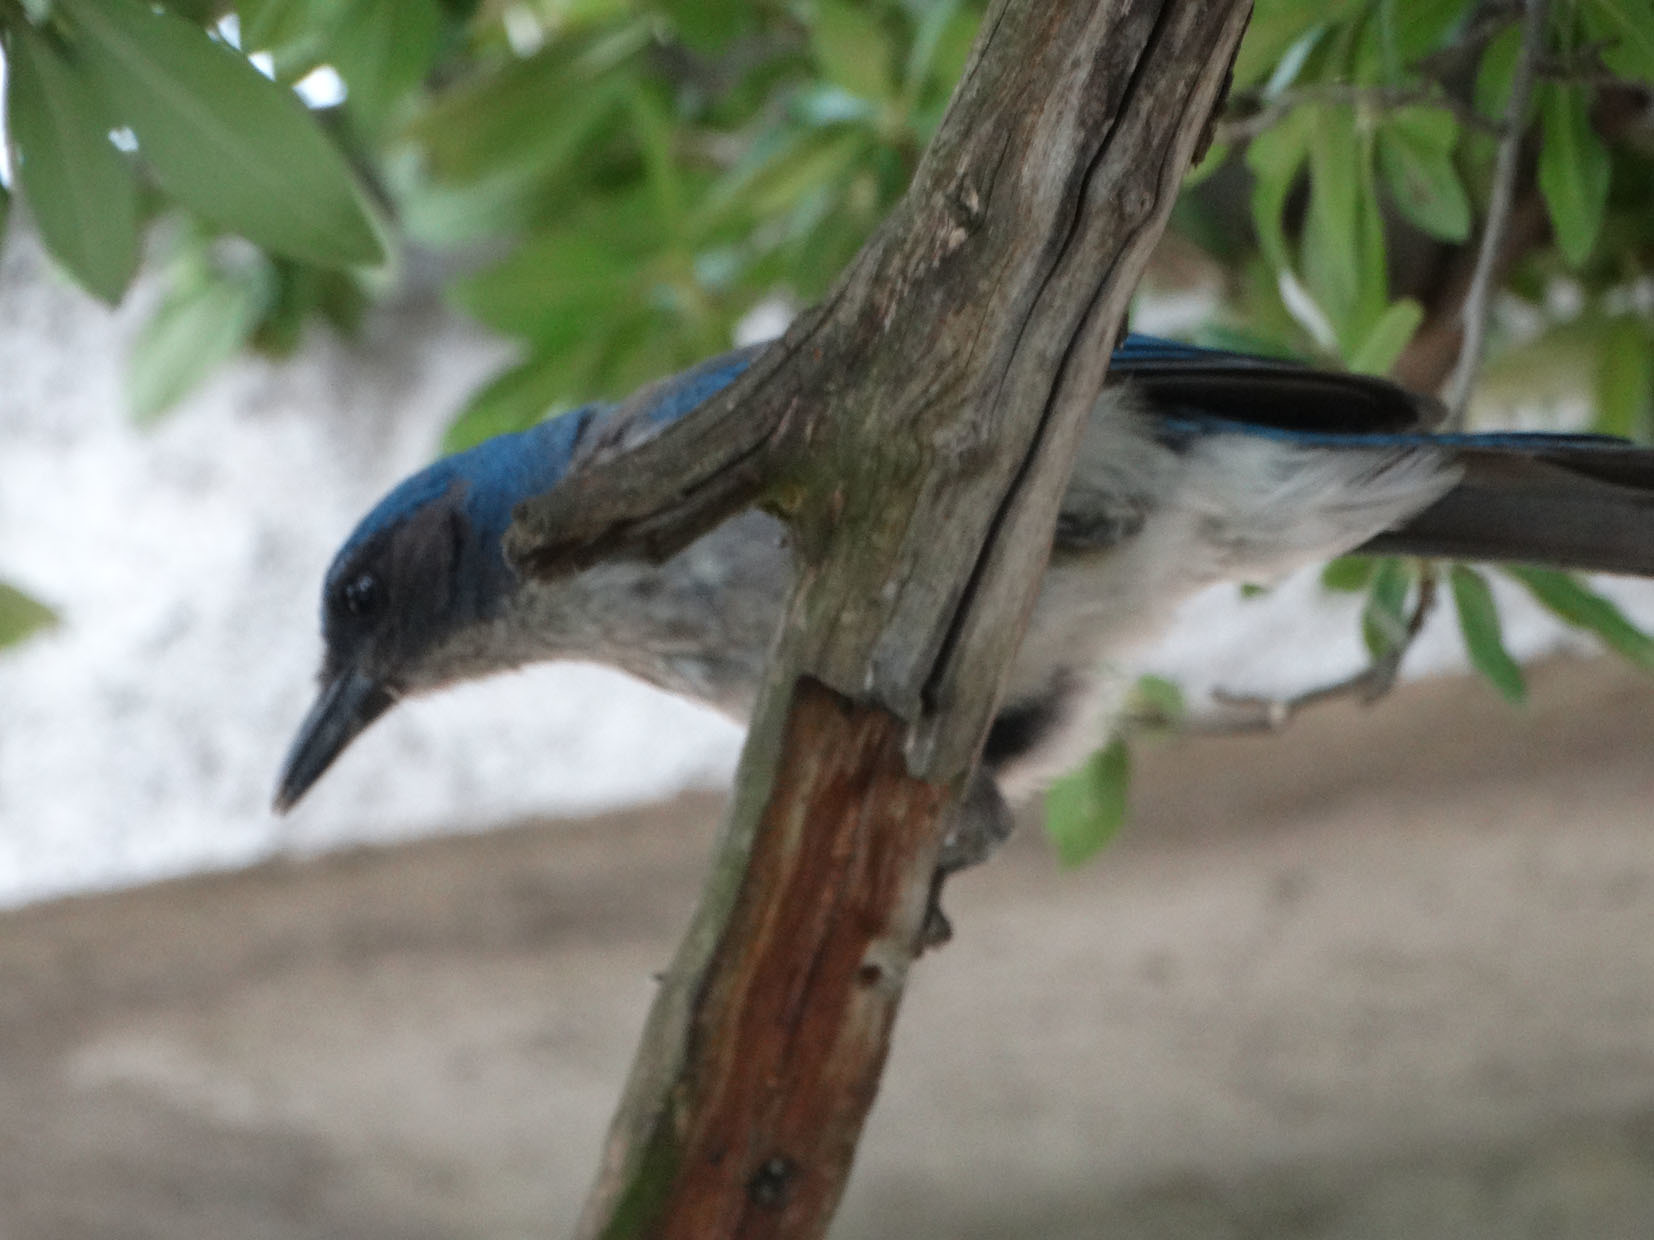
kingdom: Animalia
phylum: Chordata
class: Aves
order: Passeriformes
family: Corvidae
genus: Aphelocoma
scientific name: Aphelocoma ultramarina
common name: Transvolcanic jay
